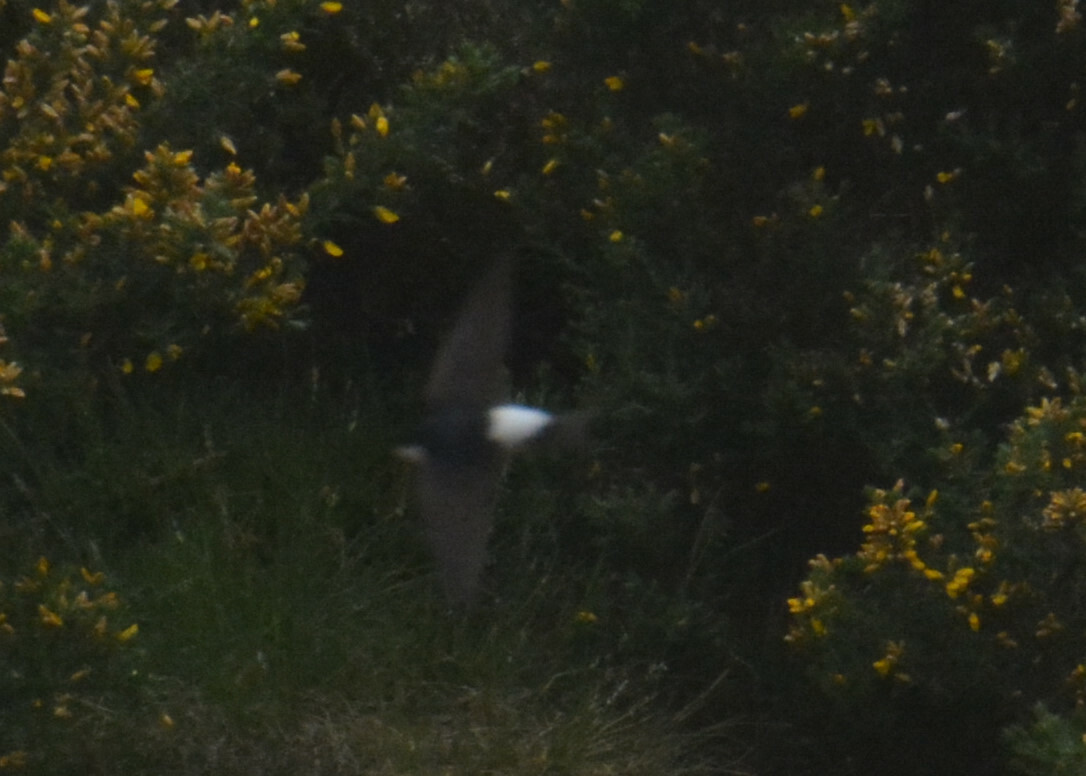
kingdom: Animalia
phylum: Chordata
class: Aves
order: Passeriformes
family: Hirundinidae
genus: Delichon
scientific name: Delichon urbicum
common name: Common house martin
